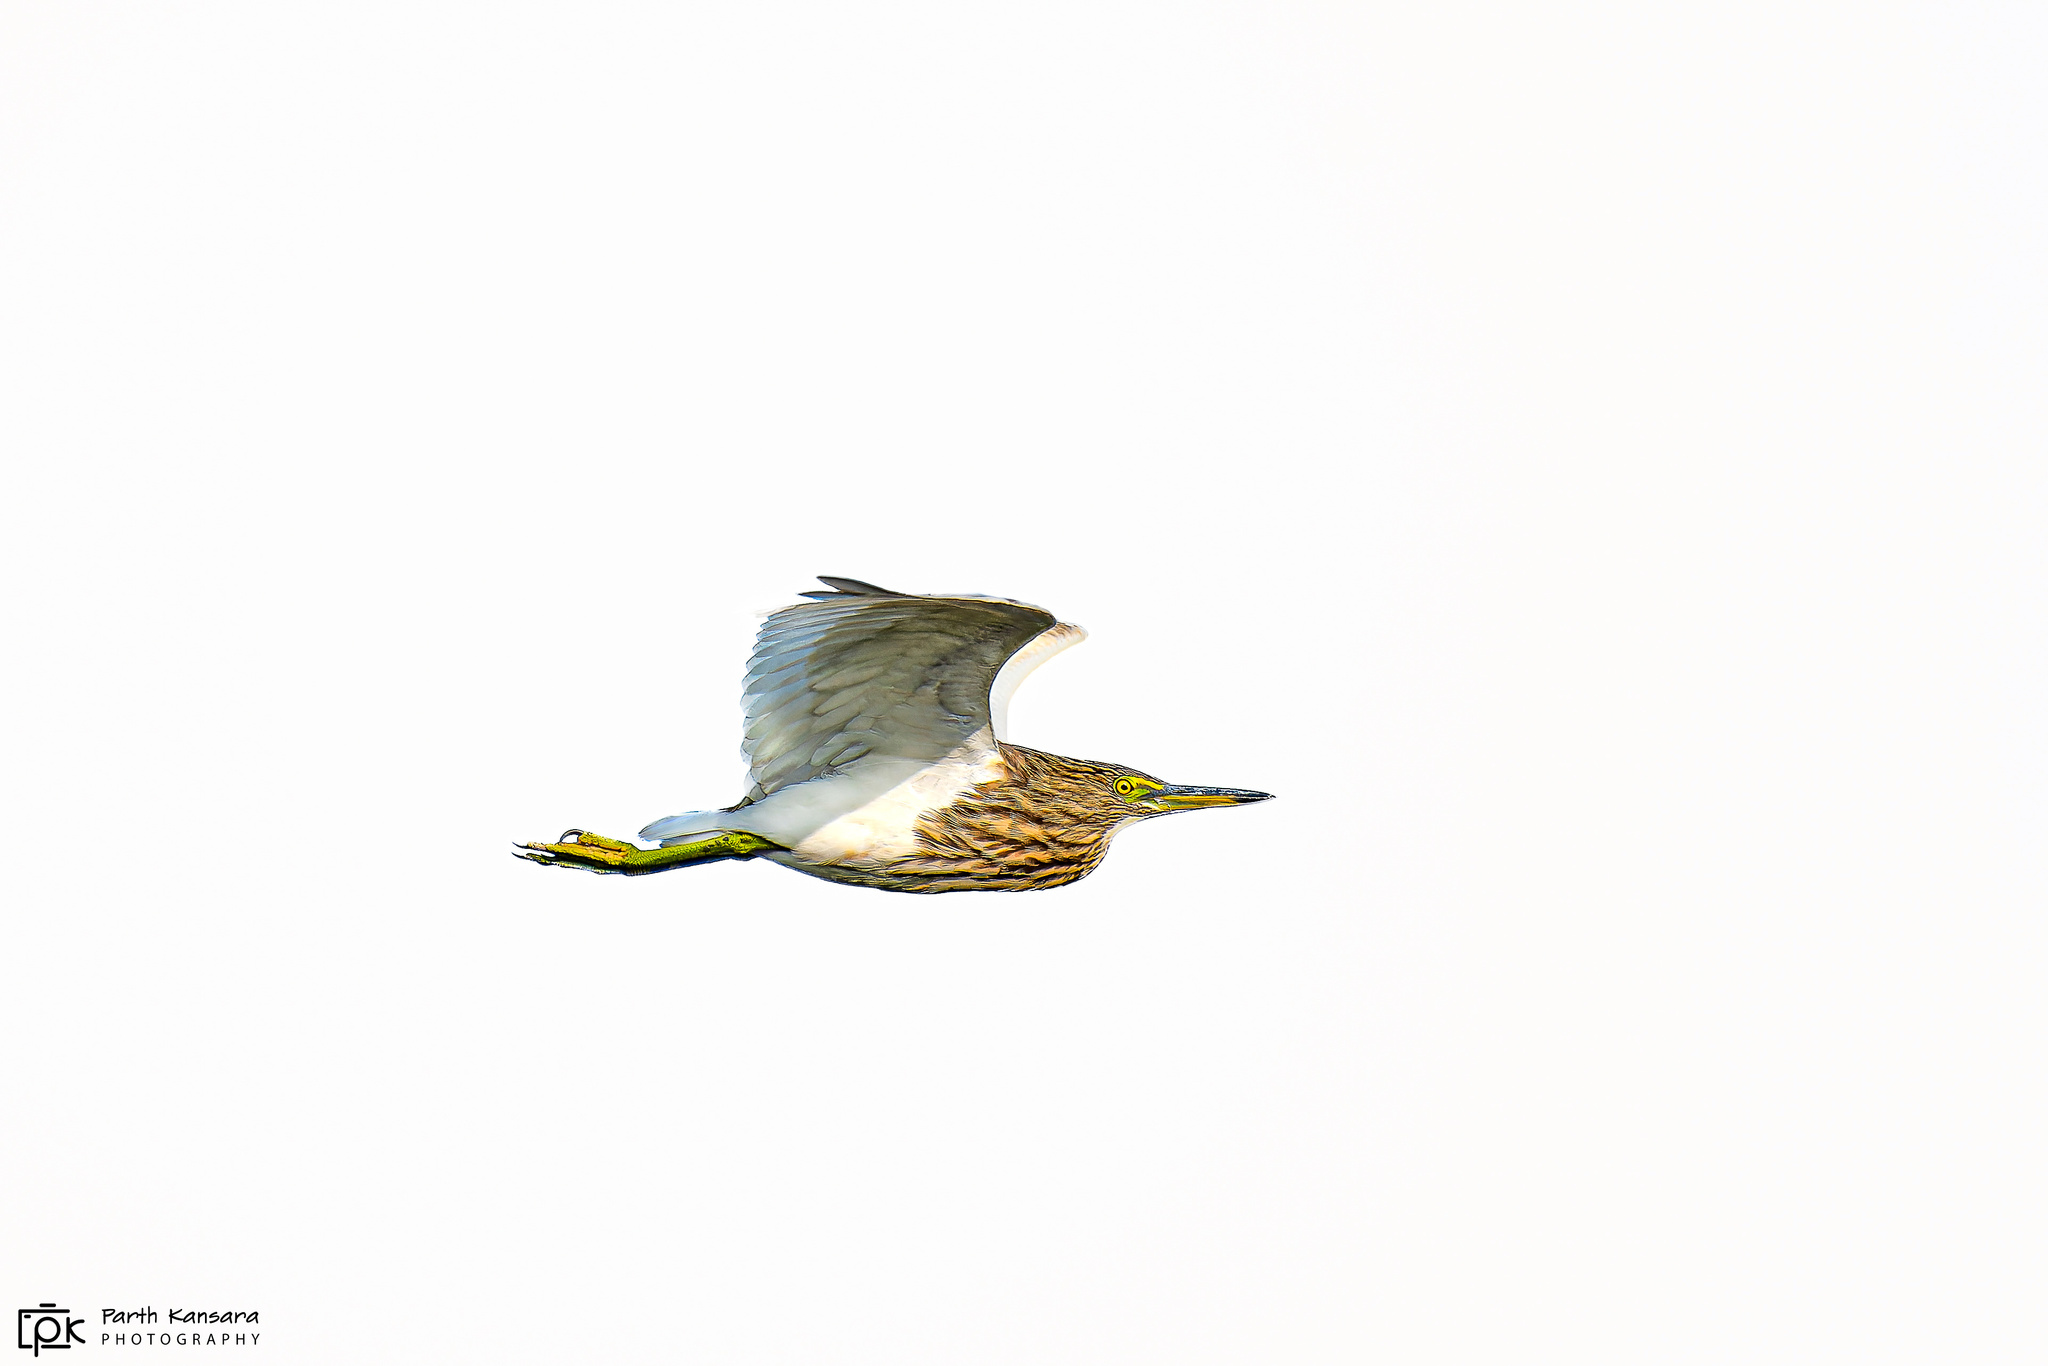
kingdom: Animalia
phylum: Chordata
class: Aves
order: Pelecaniformes
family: Ardeidae
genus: Ardeola
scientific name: Ardeola grayii
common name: Indian pond heron
